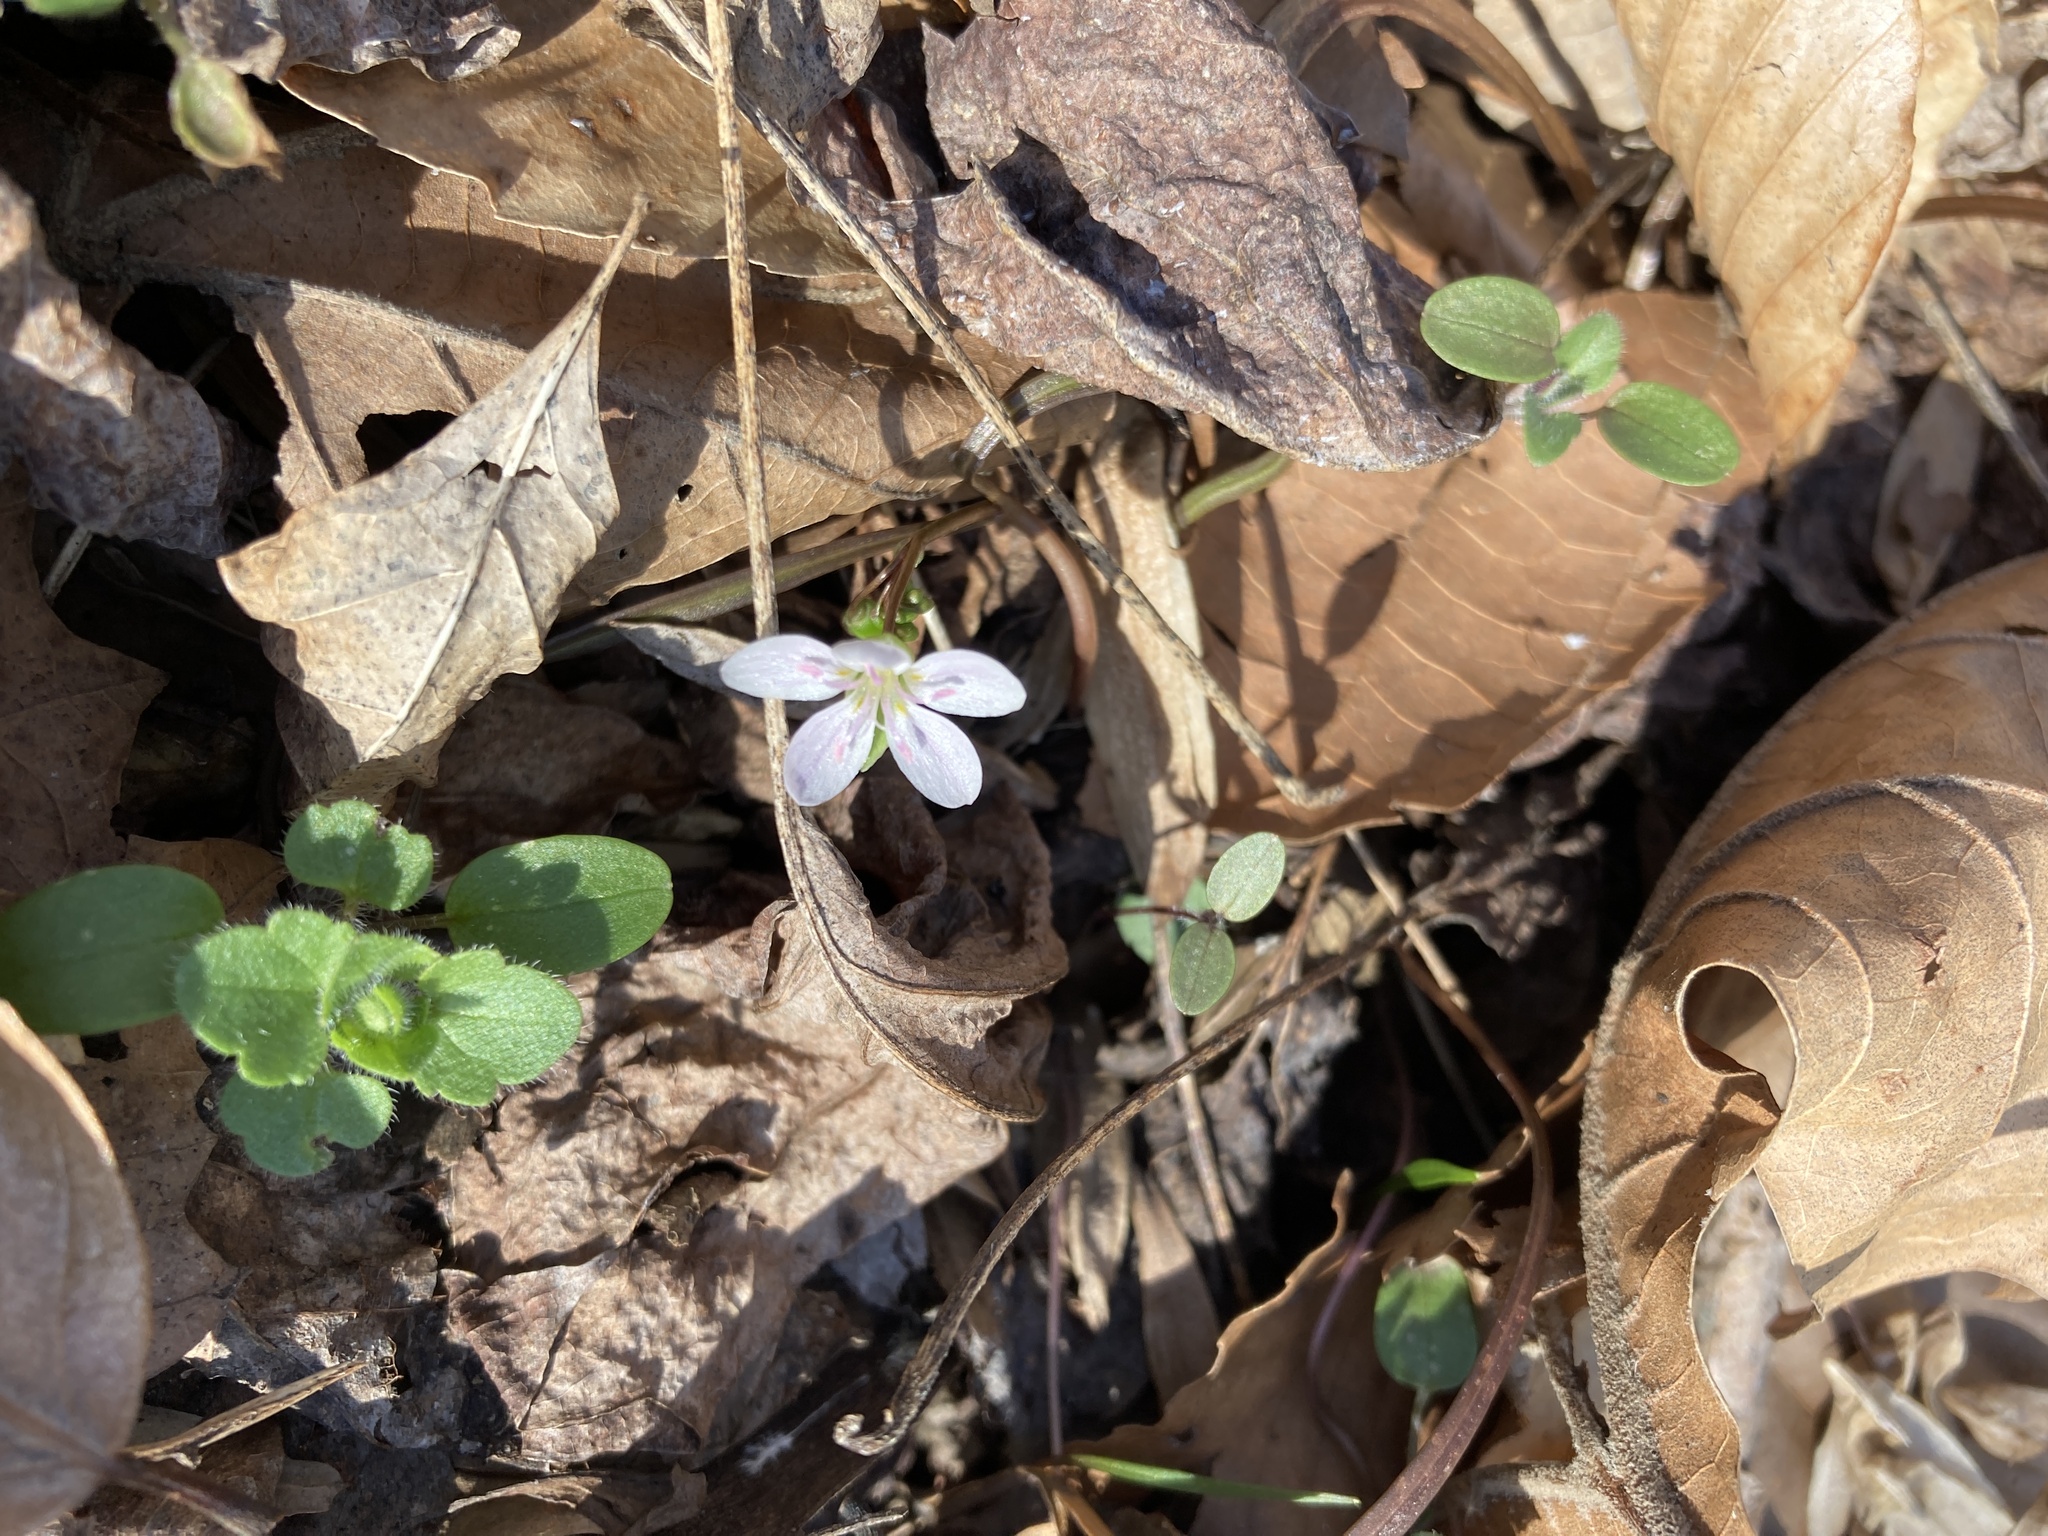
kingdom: Plantae
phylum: Tracheophyta
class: Magnoliopsida
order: Caryophyllales
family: Montiaceae
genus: Claytonia
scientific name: Claytonia virginica
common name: Virginia springbeauty
